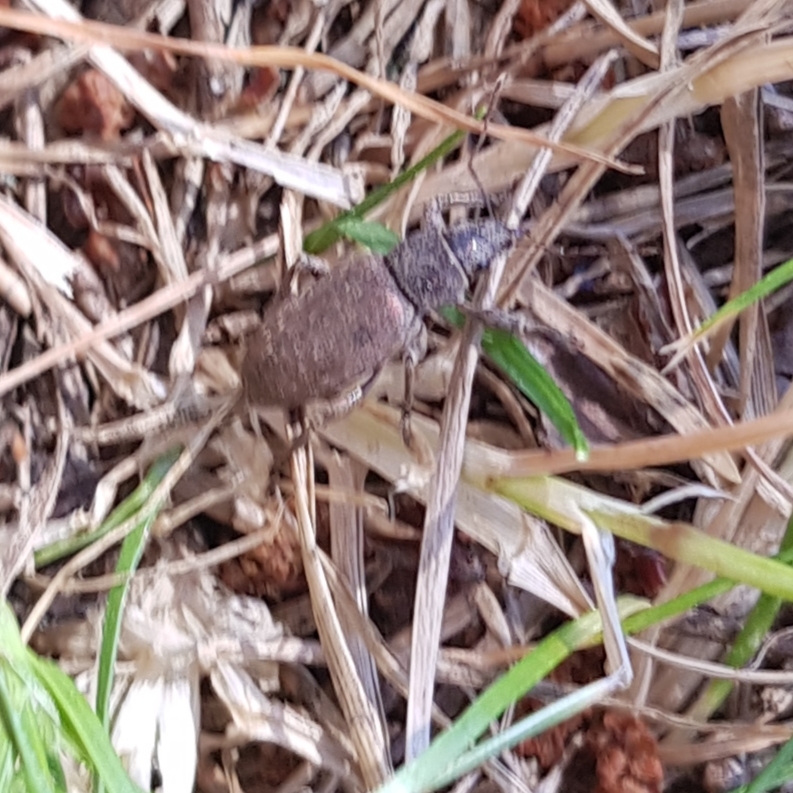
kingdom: Animalia
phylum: Arthropoda
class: Insecta
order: Coleoptera
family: Curculionidae
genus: Brachyderes
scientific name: Brachyderes incanus
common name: Weevil
